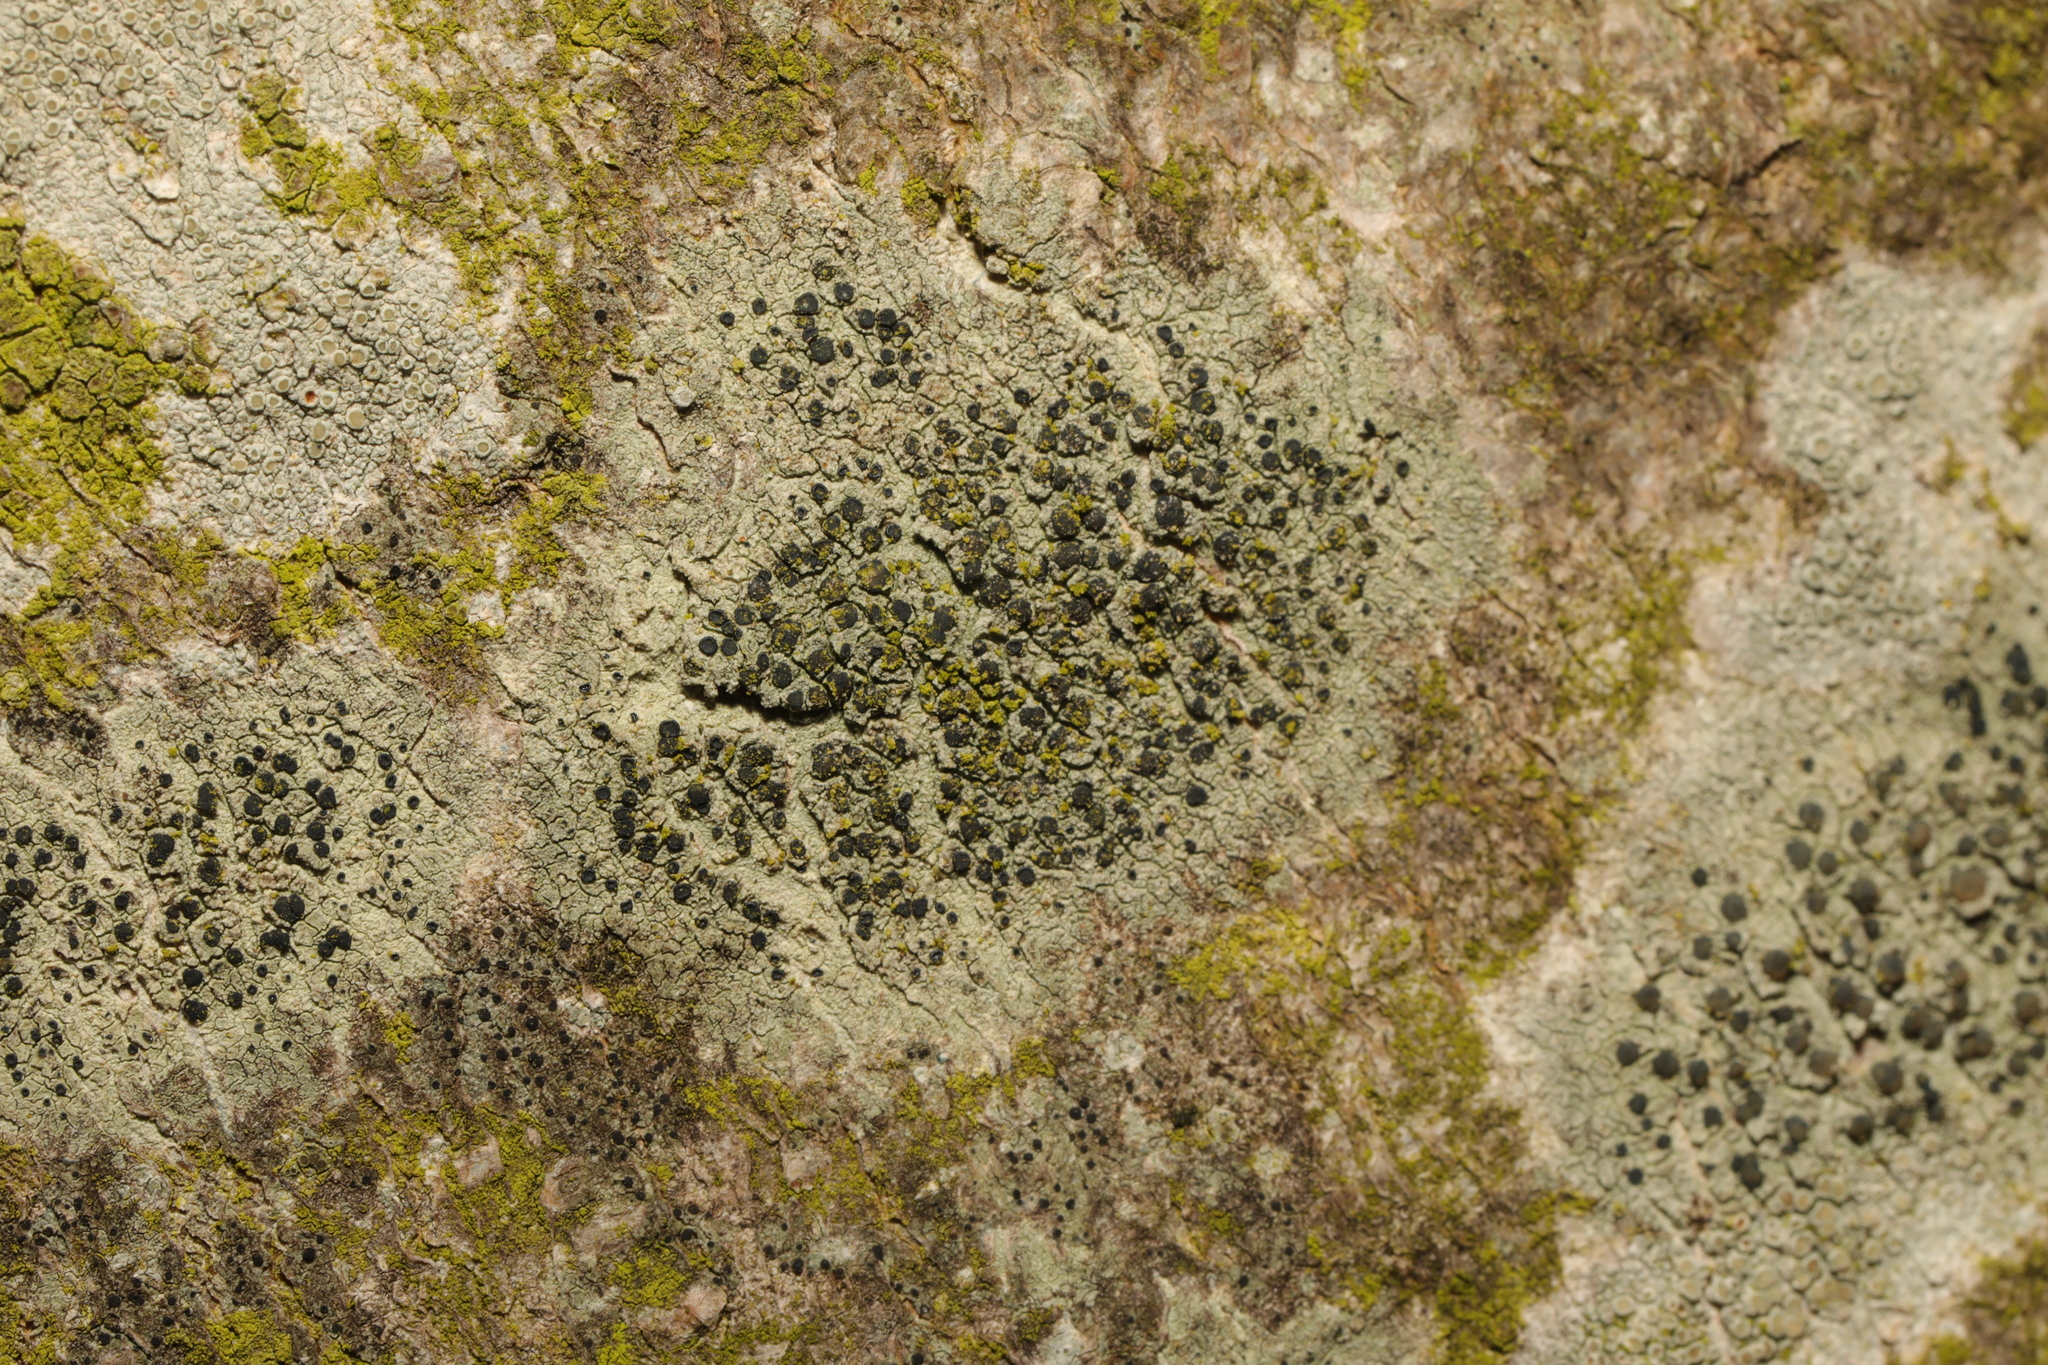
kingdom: Fungi
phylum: Ascomycota
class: Lecanoromycetes
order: Lecanorales
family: Lecanoraceae
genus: Lecidella
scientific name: Lecidella elaeochroma
